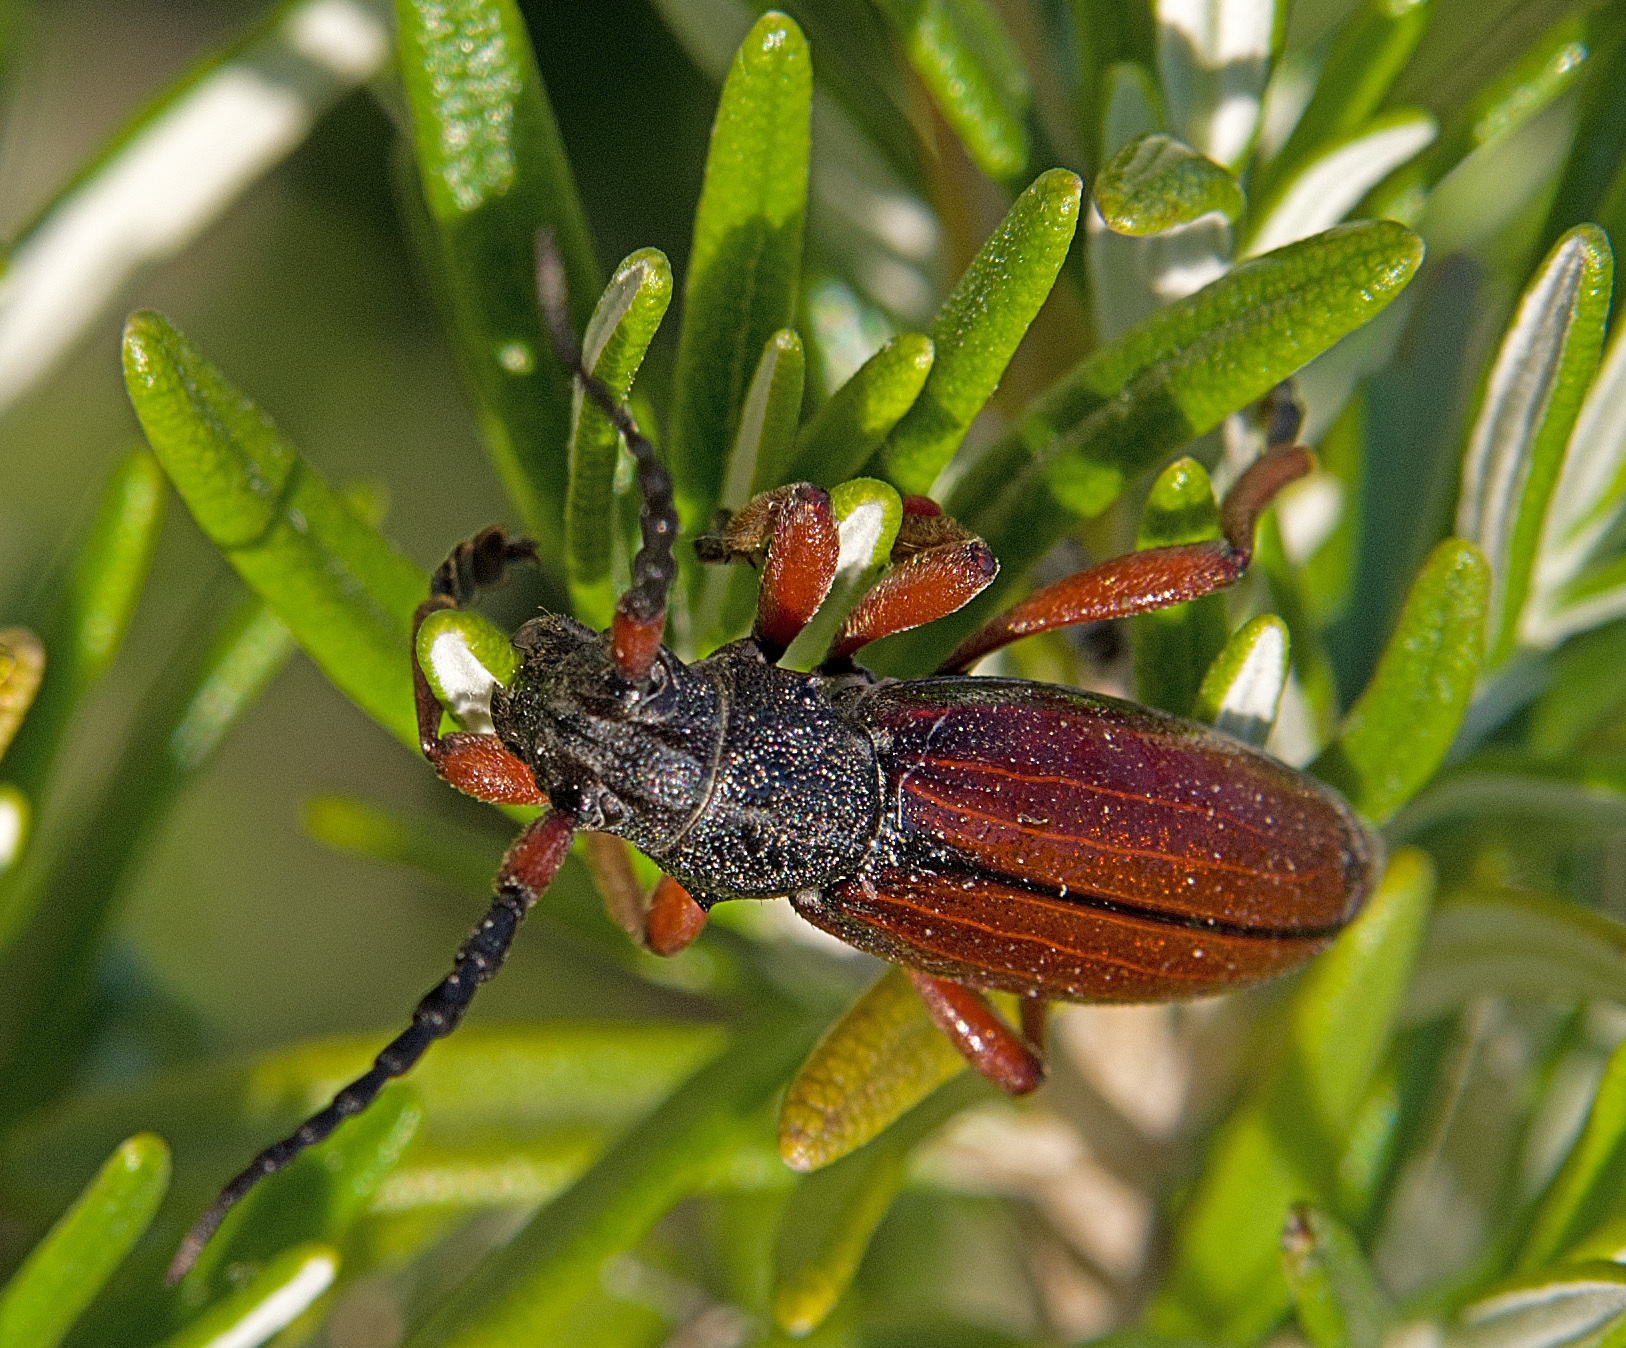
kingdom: Animalia
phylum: Arthropoda
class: Insecta
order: Coleoptera
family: Cerambycidae
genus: Dorcadion
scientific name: Dorcadion fulvum
